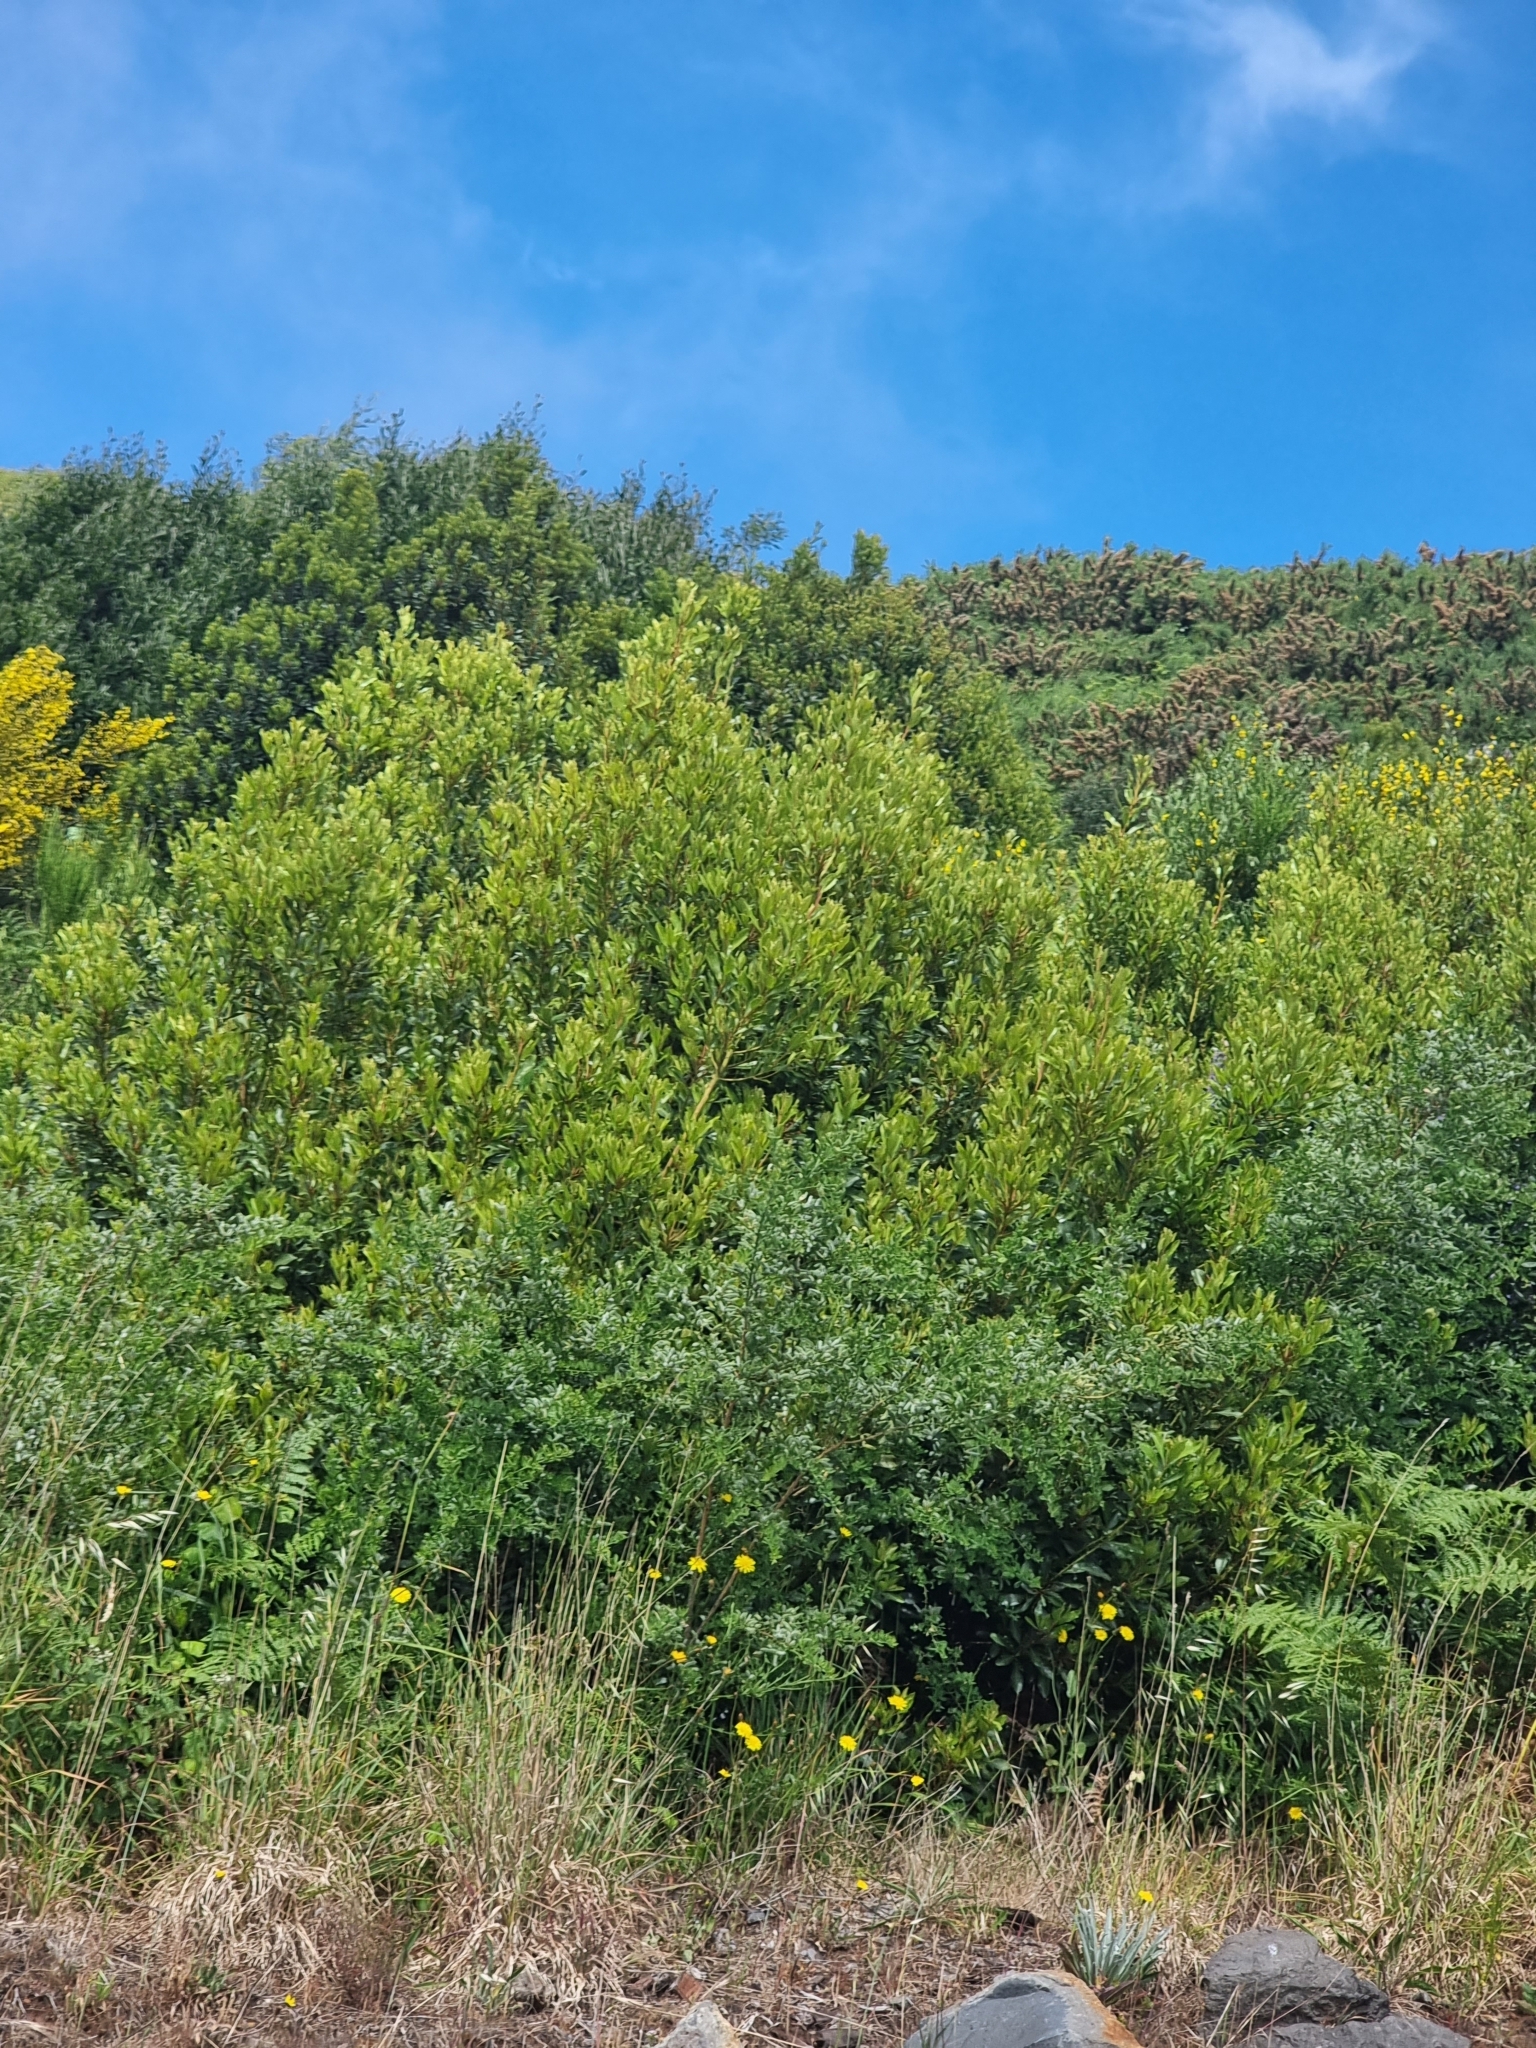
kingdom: Plantae
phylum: Tracheophyta
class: Magnoliopsida
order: Fagales
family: Myricaceae
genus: Morella
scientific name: Morella faya
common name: Firetree
